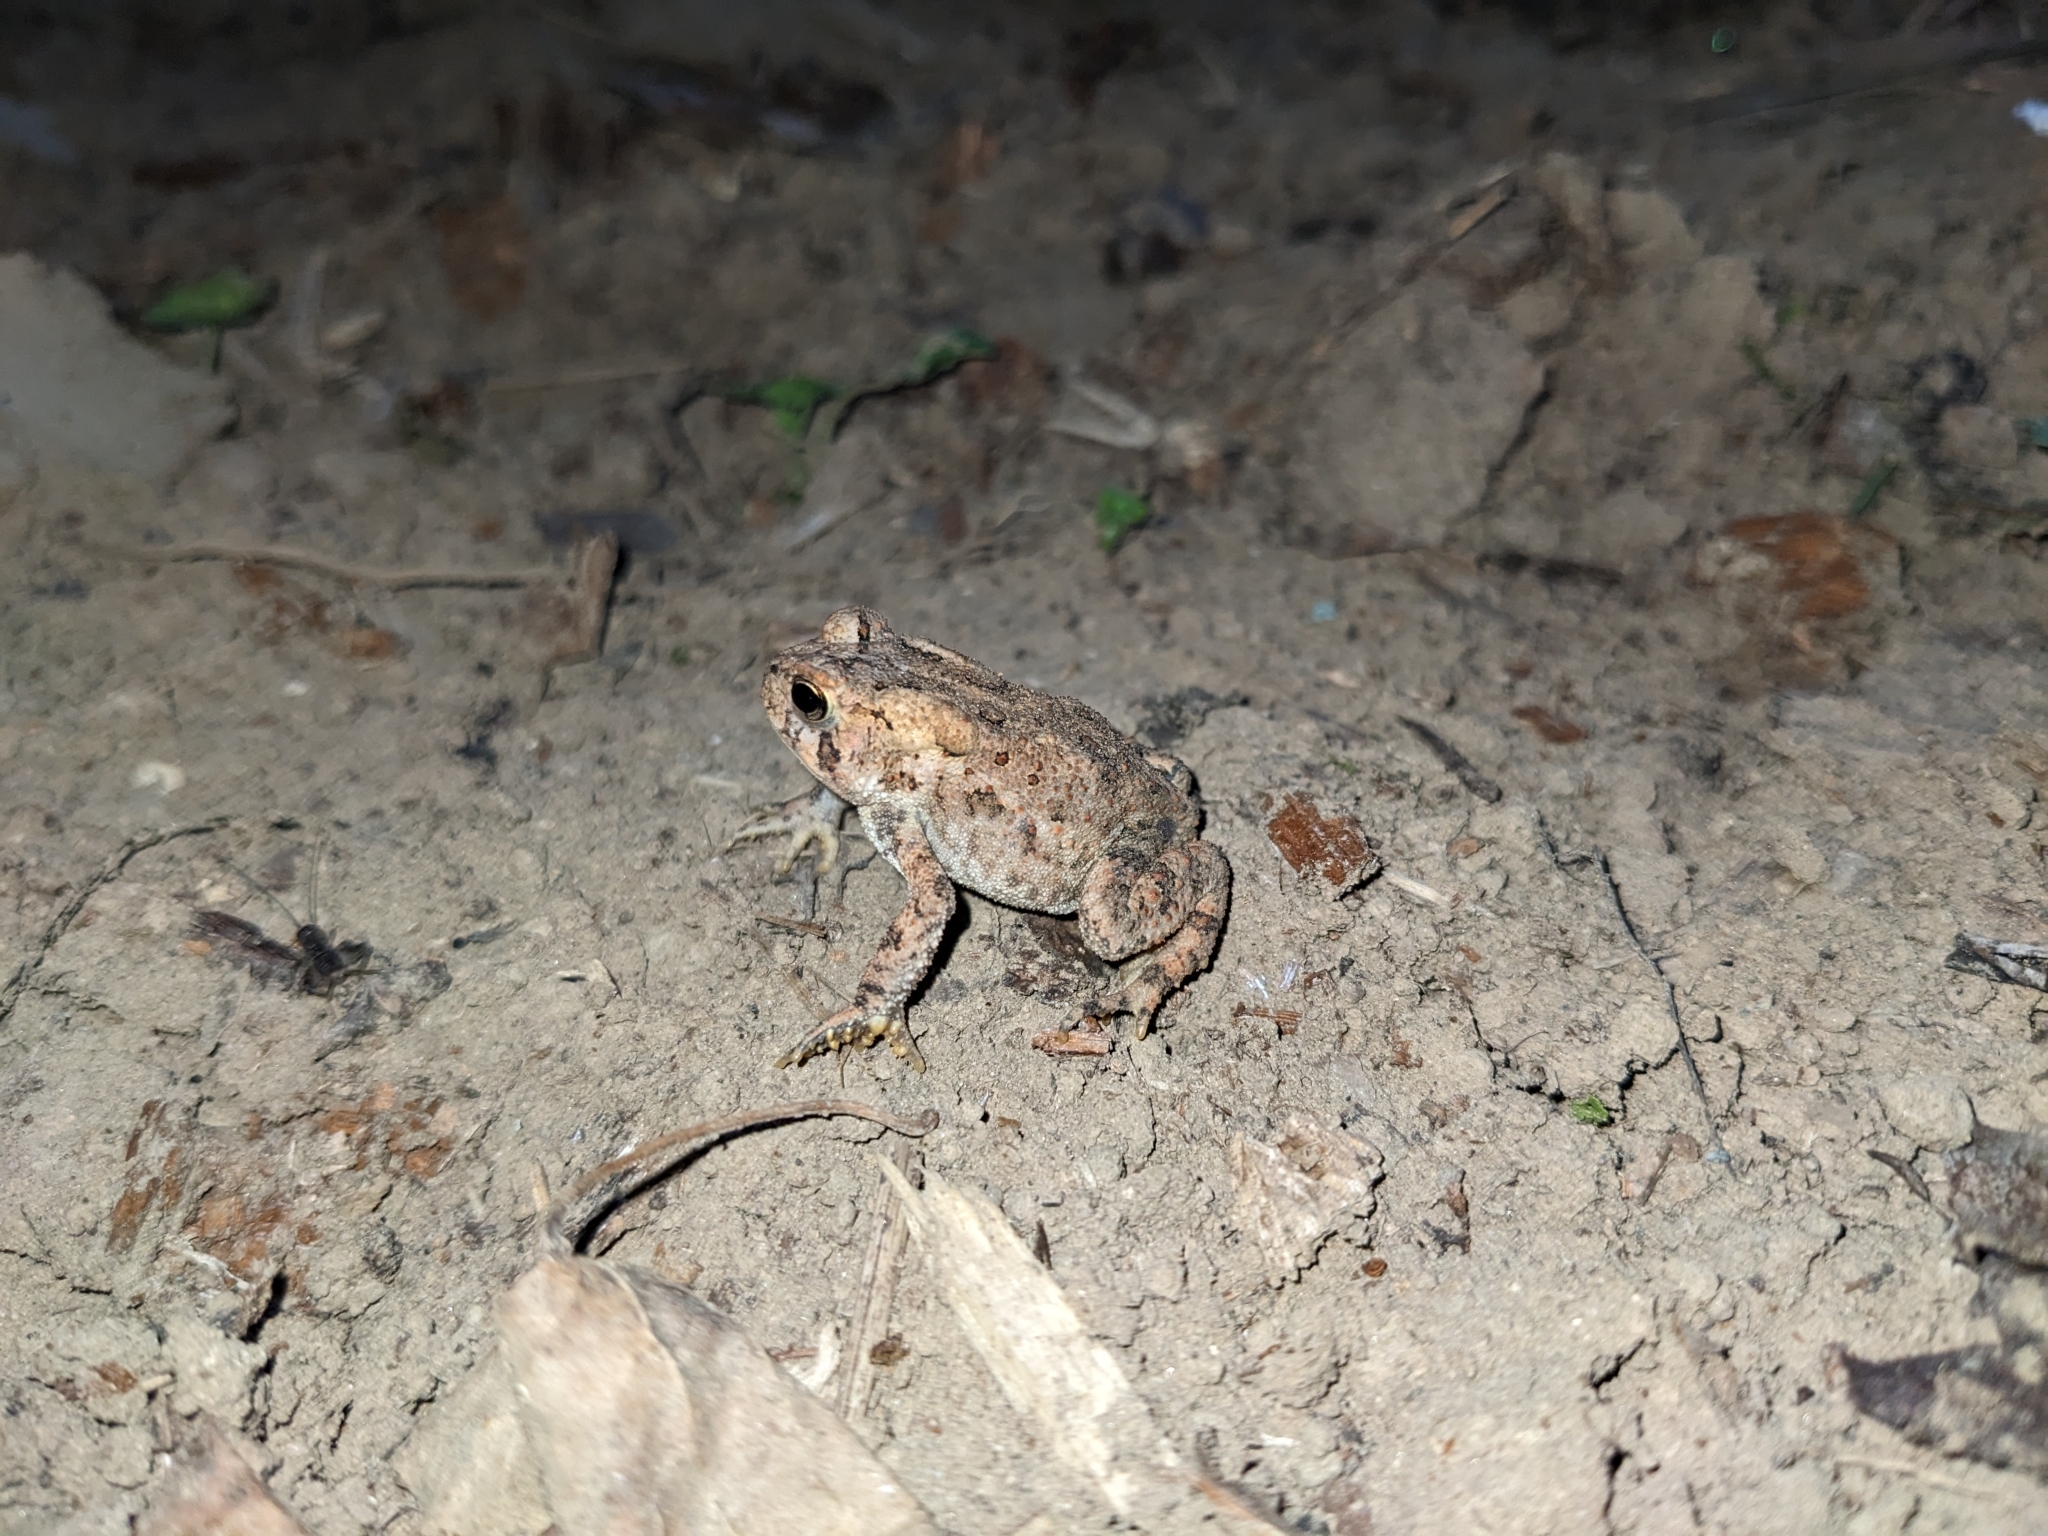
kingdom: Animalia
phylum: Chordata
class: Amphibia
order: Anura
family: Bufonidae
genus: Anaxyrus
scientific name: Anaxyrus americanus
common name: American toad
